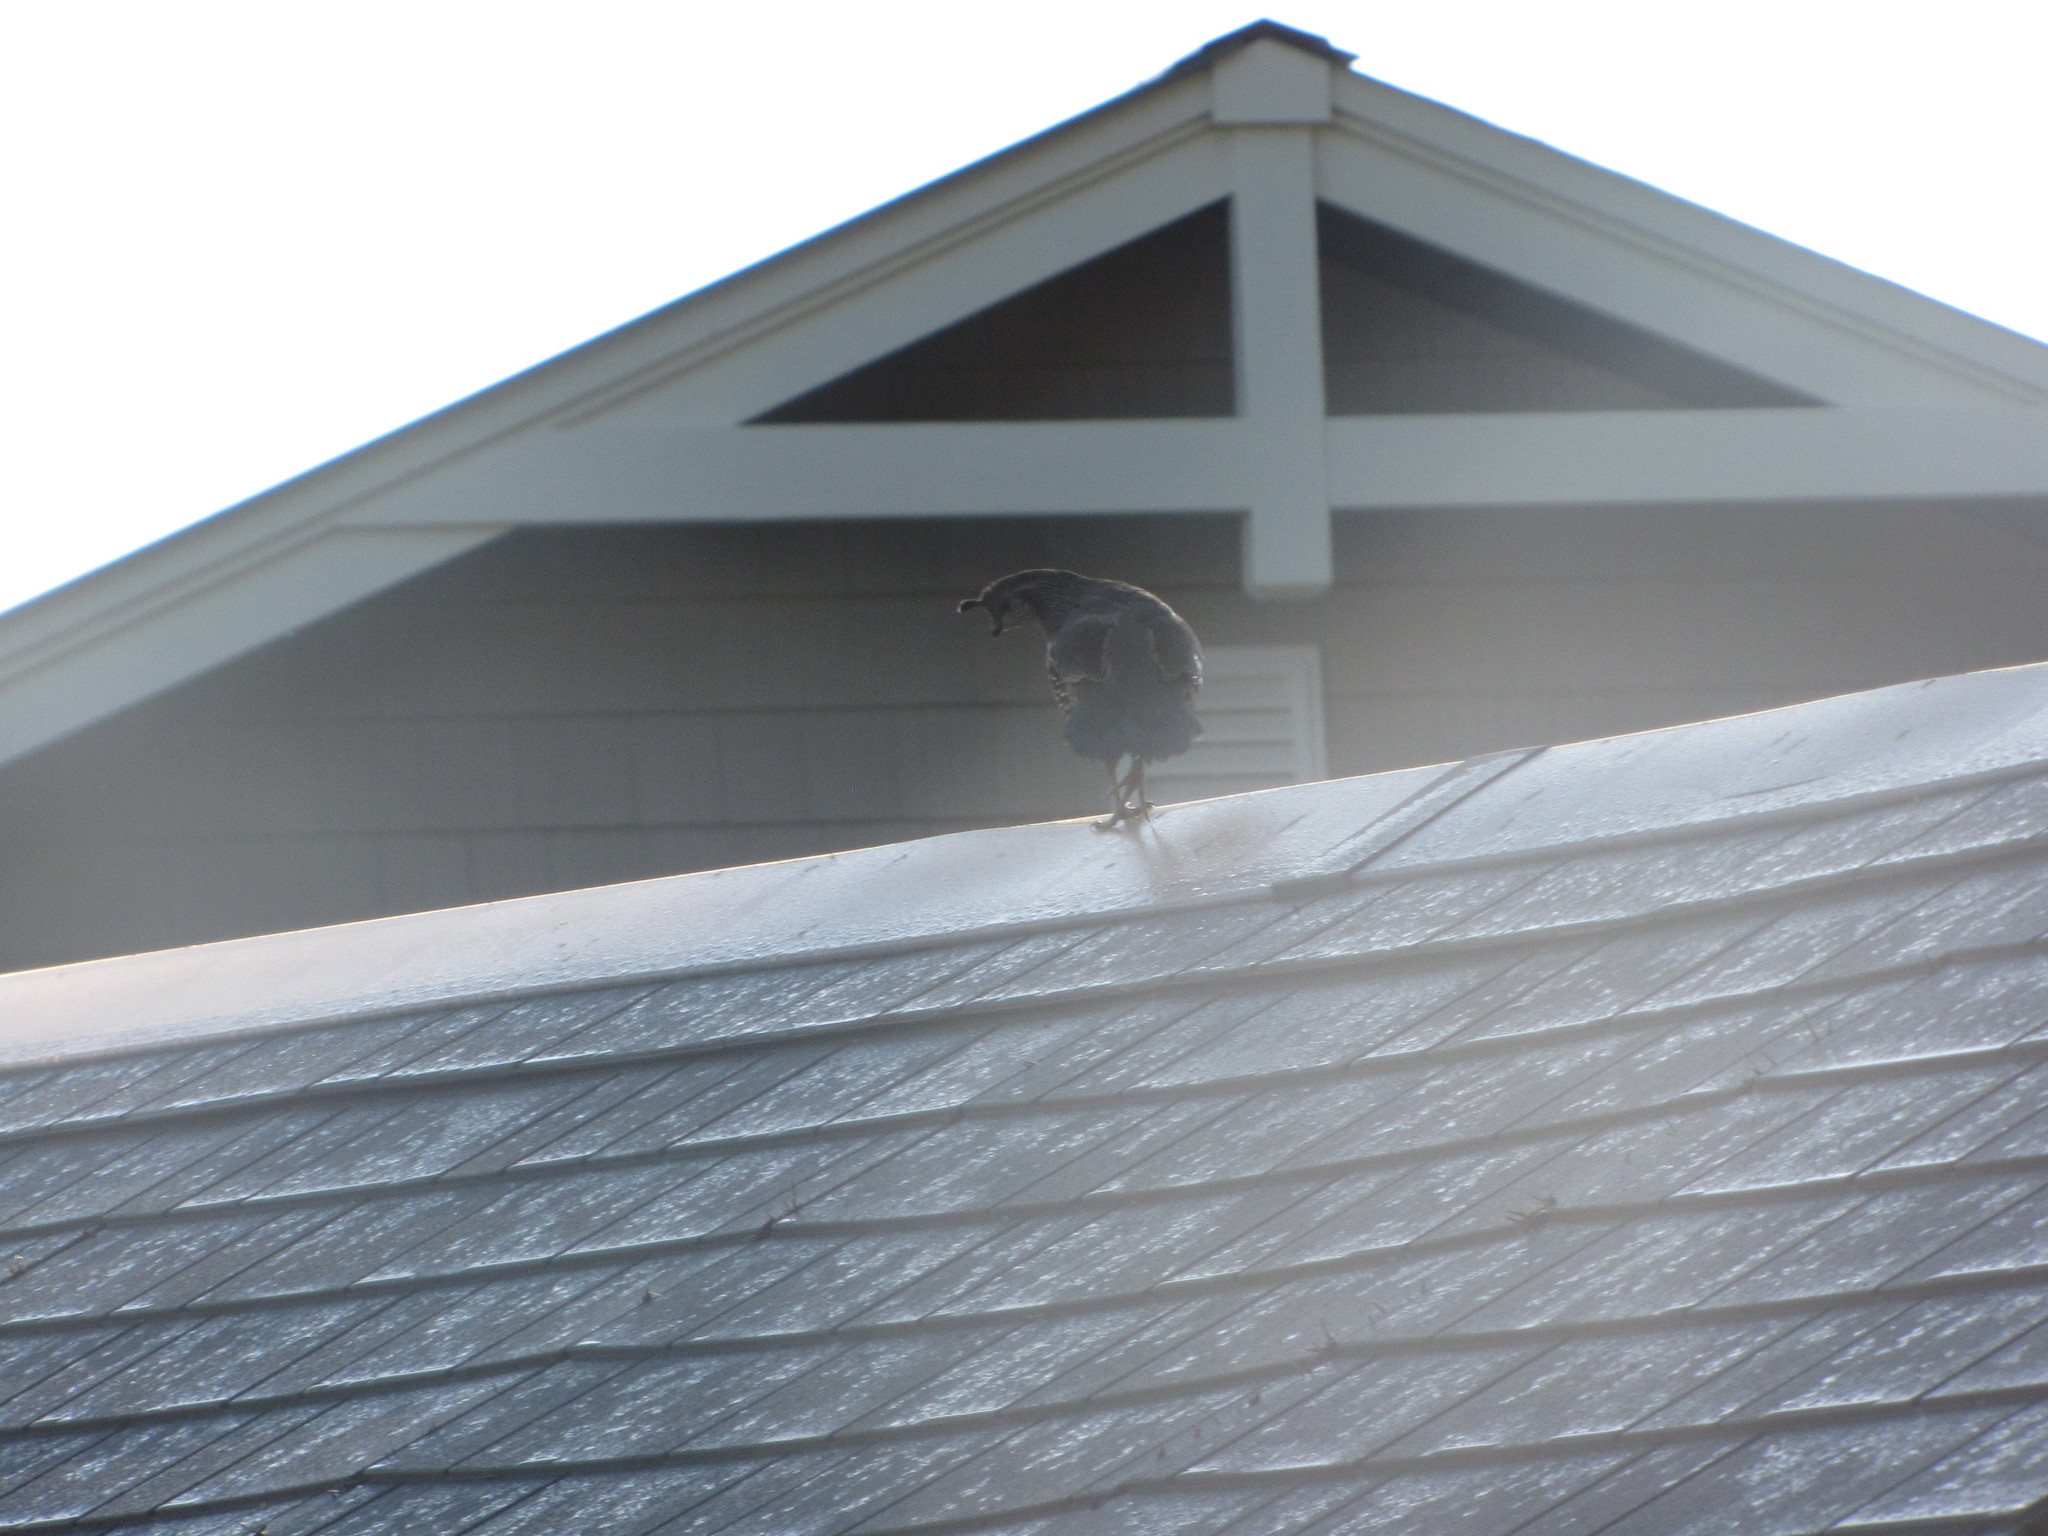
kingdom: Animalia
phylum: Chordata
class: Aves
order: Galliformes
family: Odontophoridae
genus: Callipepla
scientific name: Callipepla californica
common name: California quail
